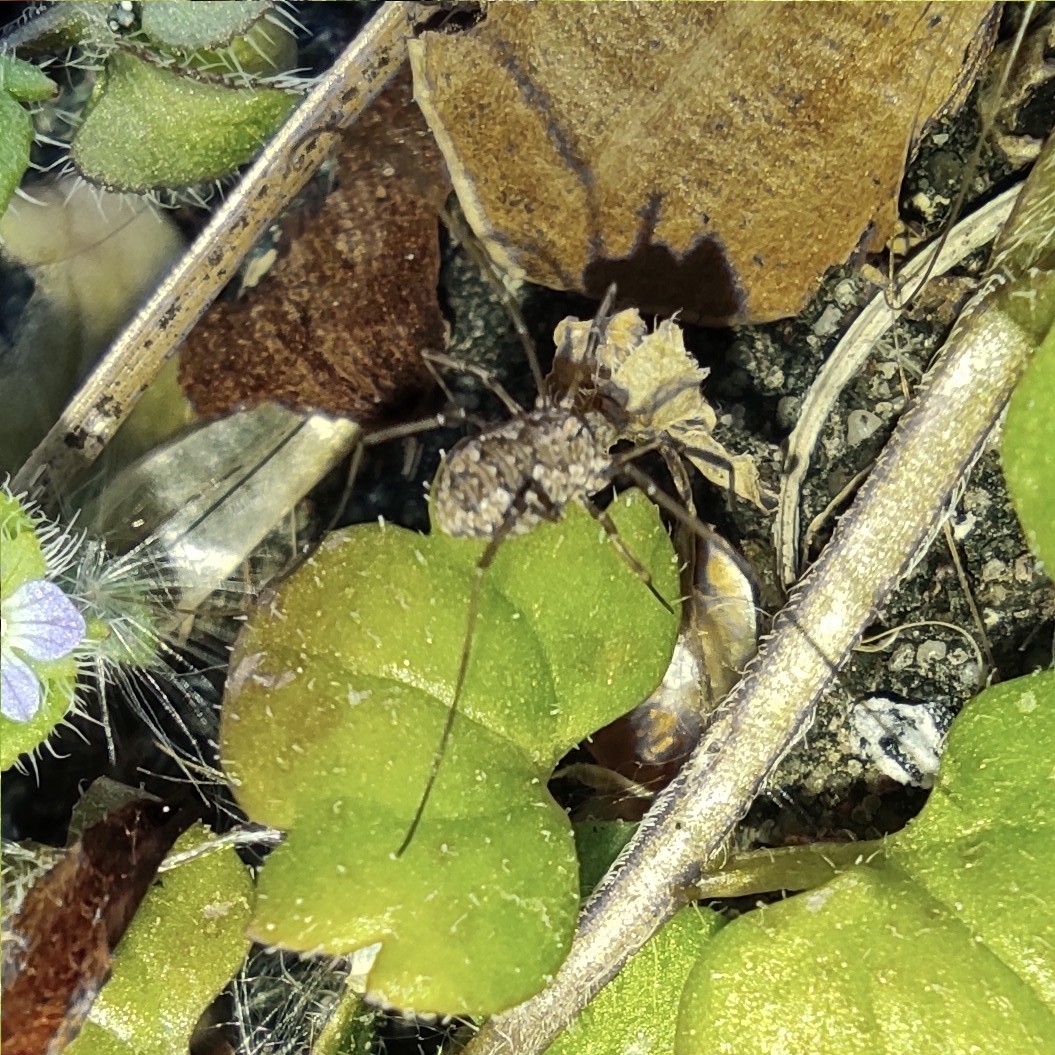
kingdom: Animalia
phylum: Arthropoda
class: Arachnida
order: Opiliones
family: Phalangiidae
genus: Phalangium
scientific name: Phalangium opilio
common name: Daddy longleg
